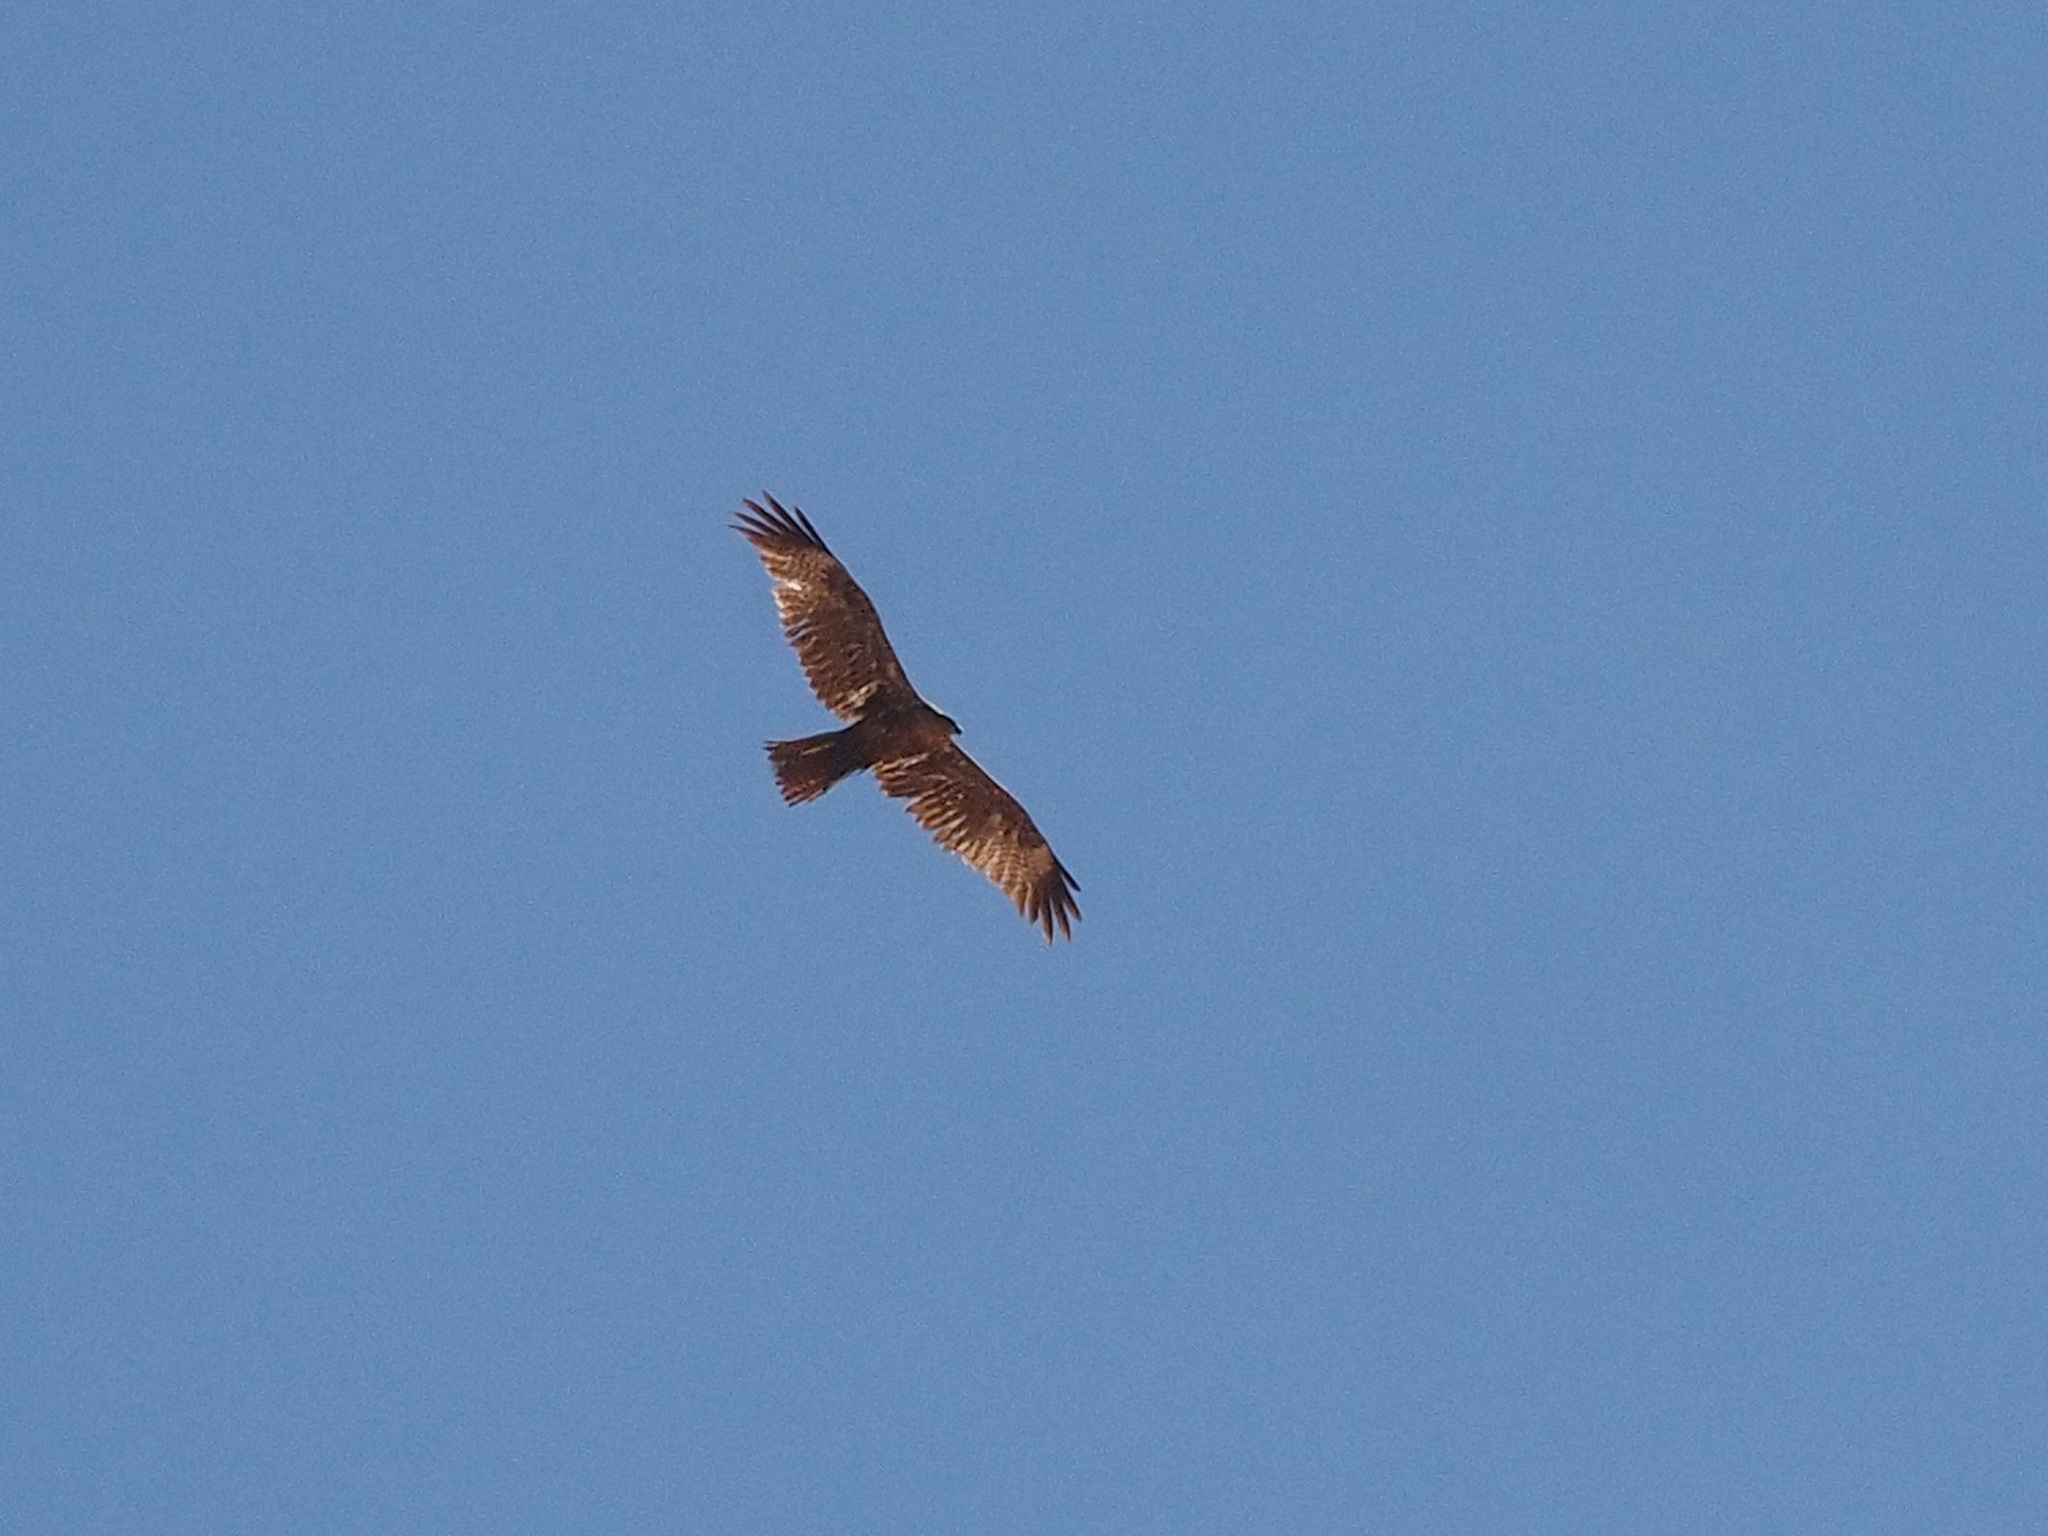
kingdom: Animalia
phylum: Chordata
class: Aves
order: Accipitriformes
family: Accipitridae
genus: Milvus
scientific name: Milvus migrans
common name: Black kite
